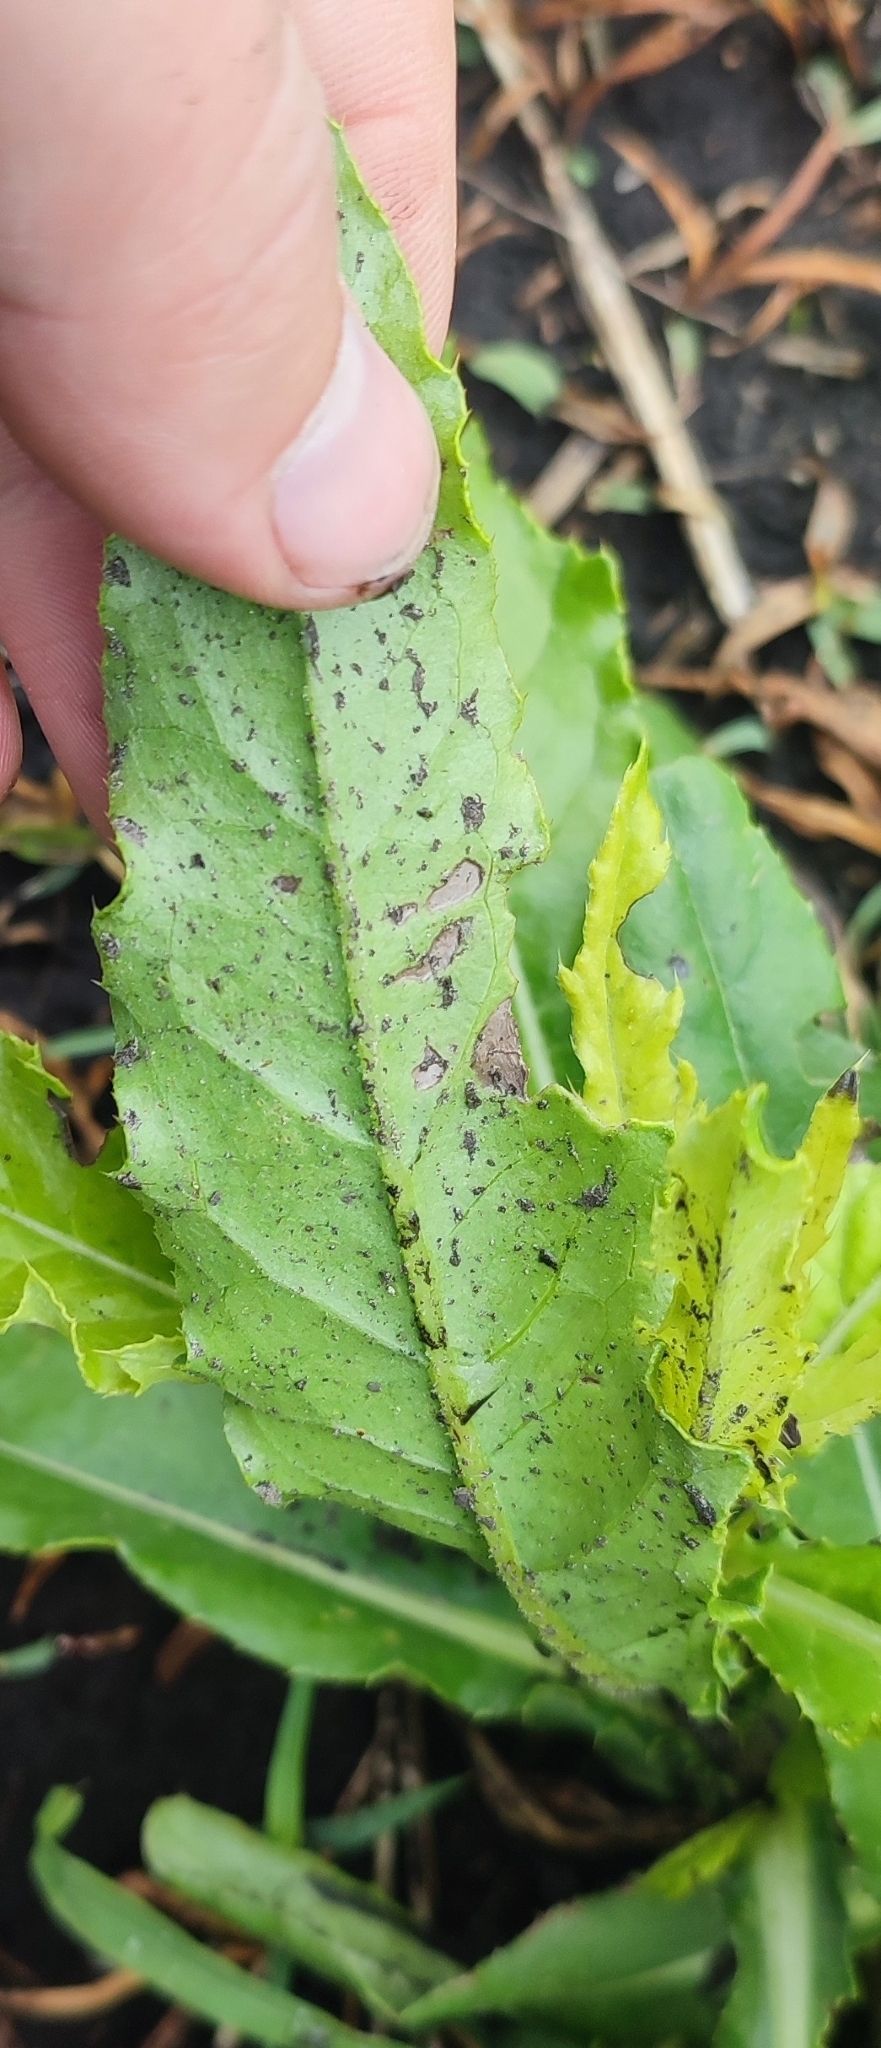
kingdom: Plantae
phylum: Tracheophyta
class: Magnoliopsida
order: Asterales
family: Asteraceae
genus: Cirsium
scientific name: Cirsium arvense
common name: Creeping thistle
